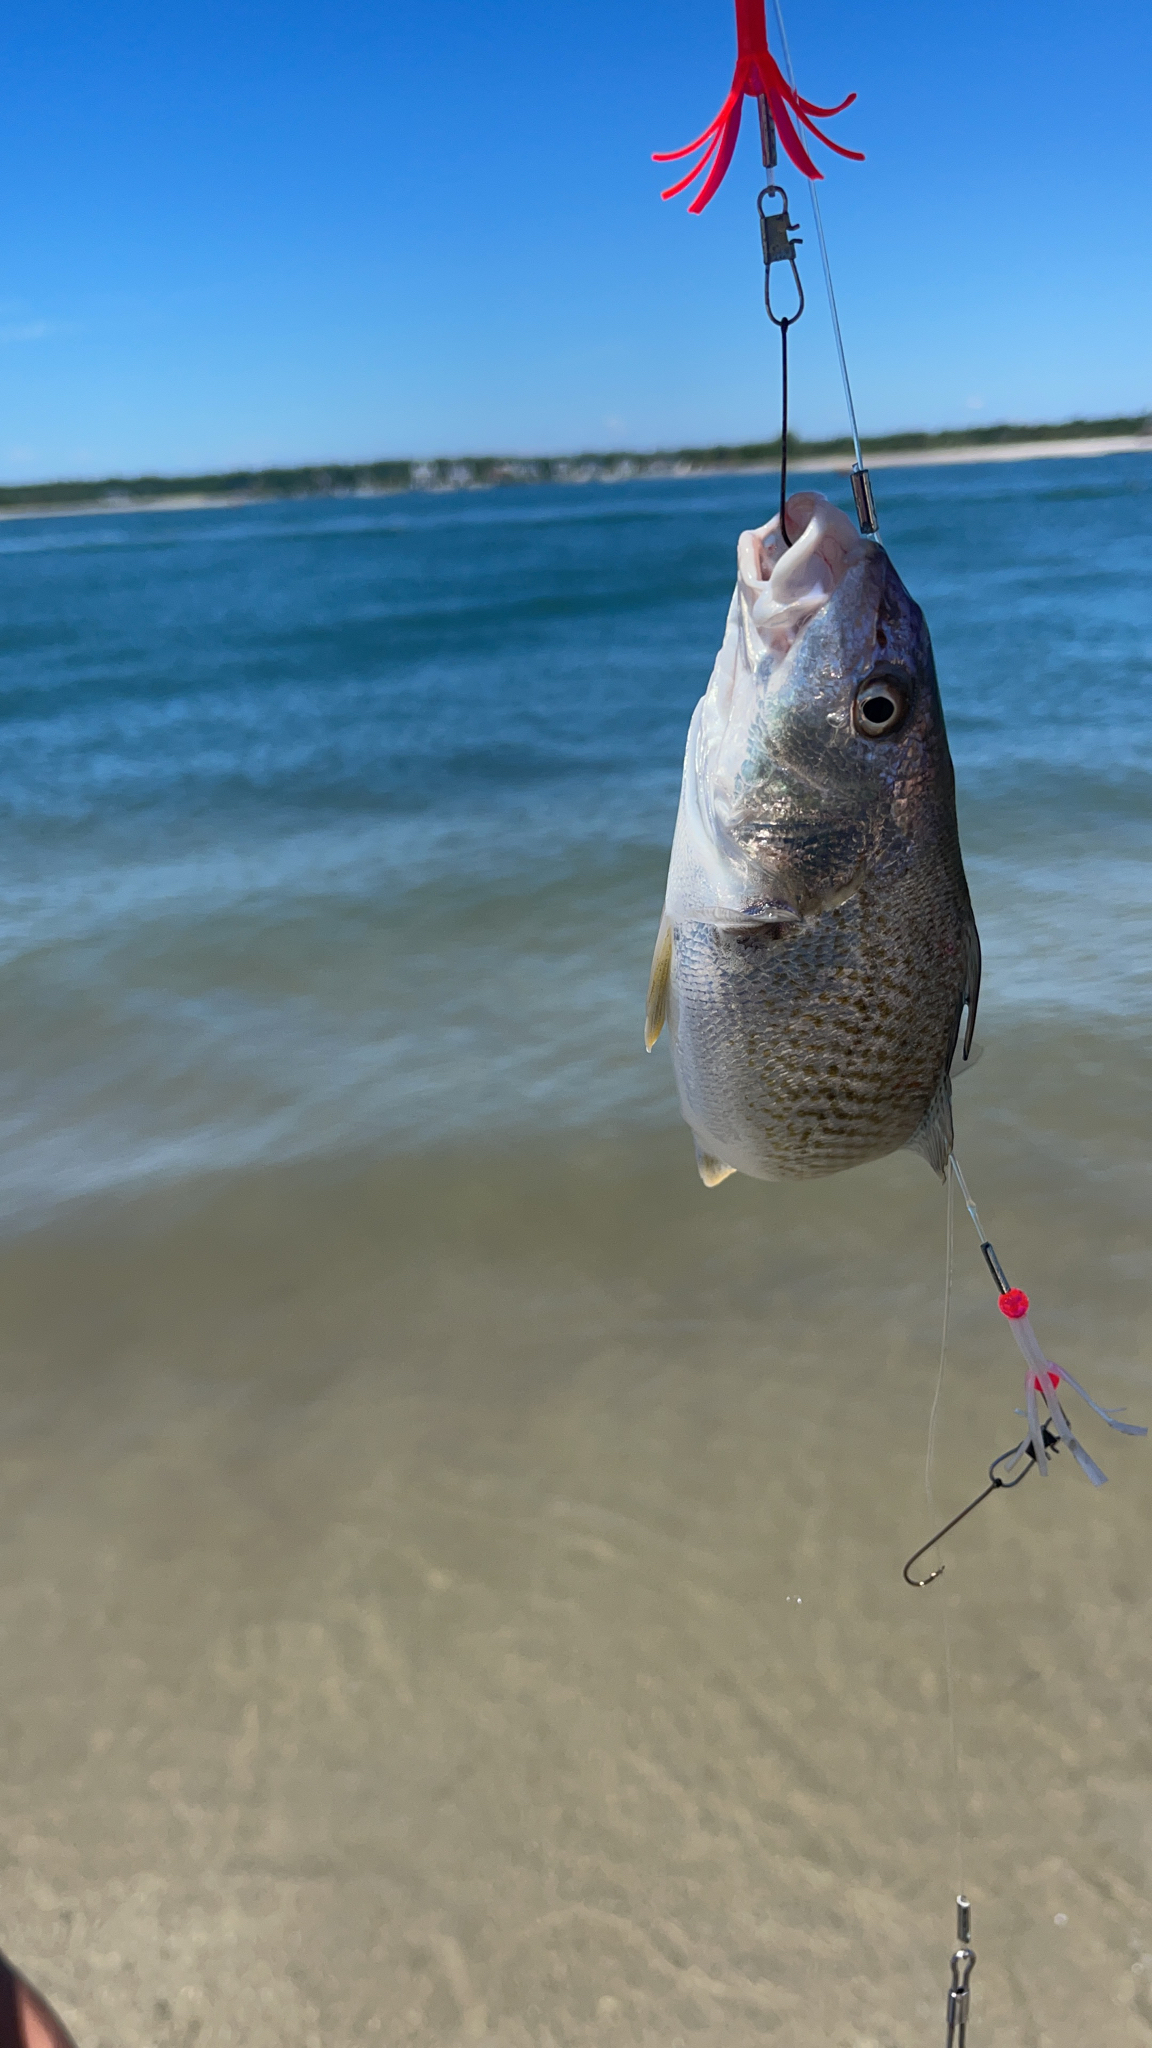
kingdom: Animalia
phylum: Chordata
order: Perciformes
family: Sciaenidae
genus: Micropogonias
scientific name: Micropogonias undulatus
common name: Atlantic croaker
